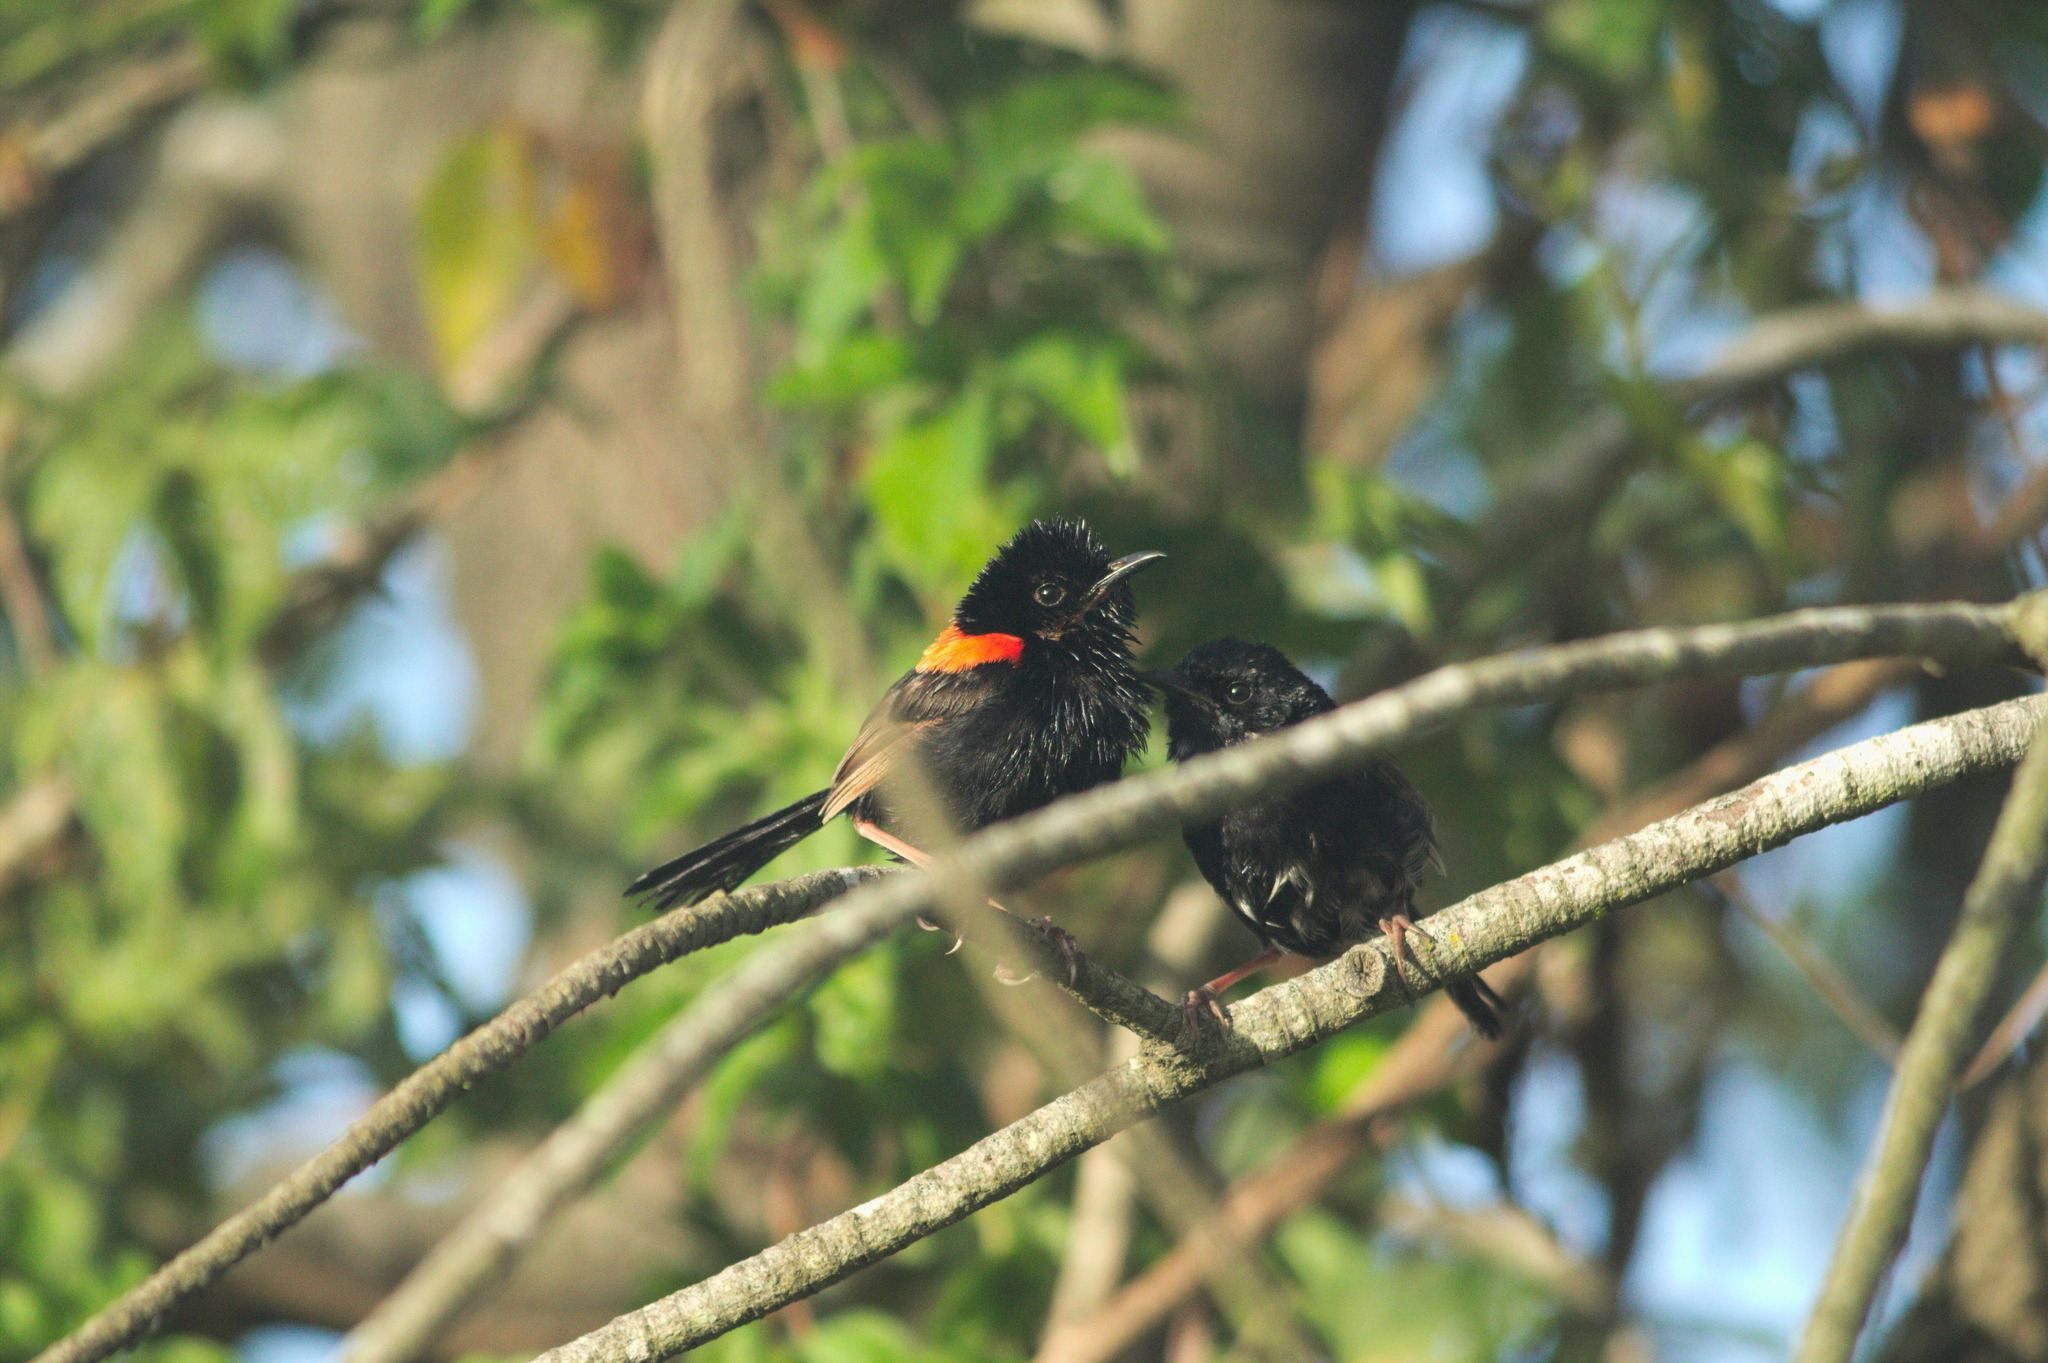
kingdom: Animalia
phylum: Chordata
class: Aves
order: Passeriformes
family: Maluridae
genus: Malurus
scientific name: Malurus melanocephalus
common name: Red-backed fairywren
